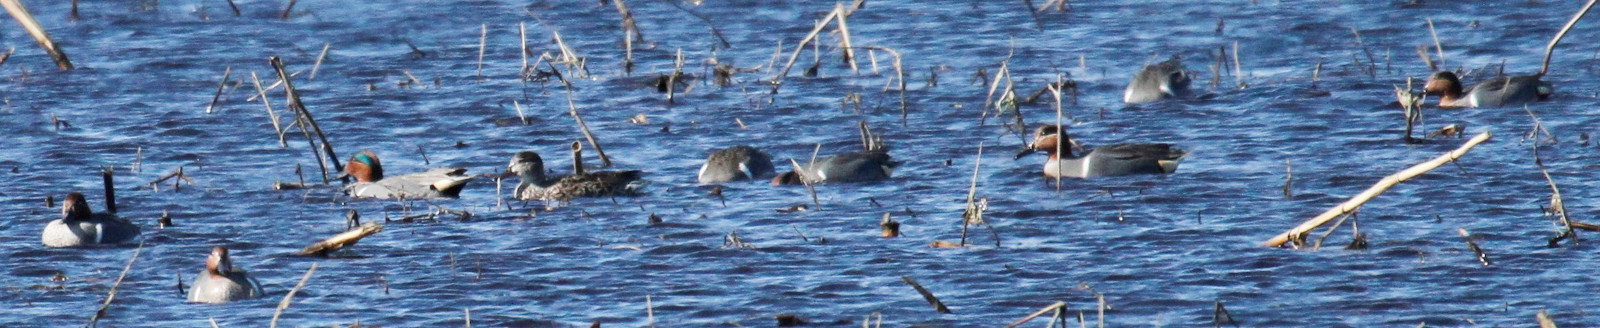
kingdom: Animalia
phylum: Chordata
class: Aves
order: Anseriformes
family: Anatidae
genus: Anas
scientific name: Anas crecca
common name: Eurasian teal
